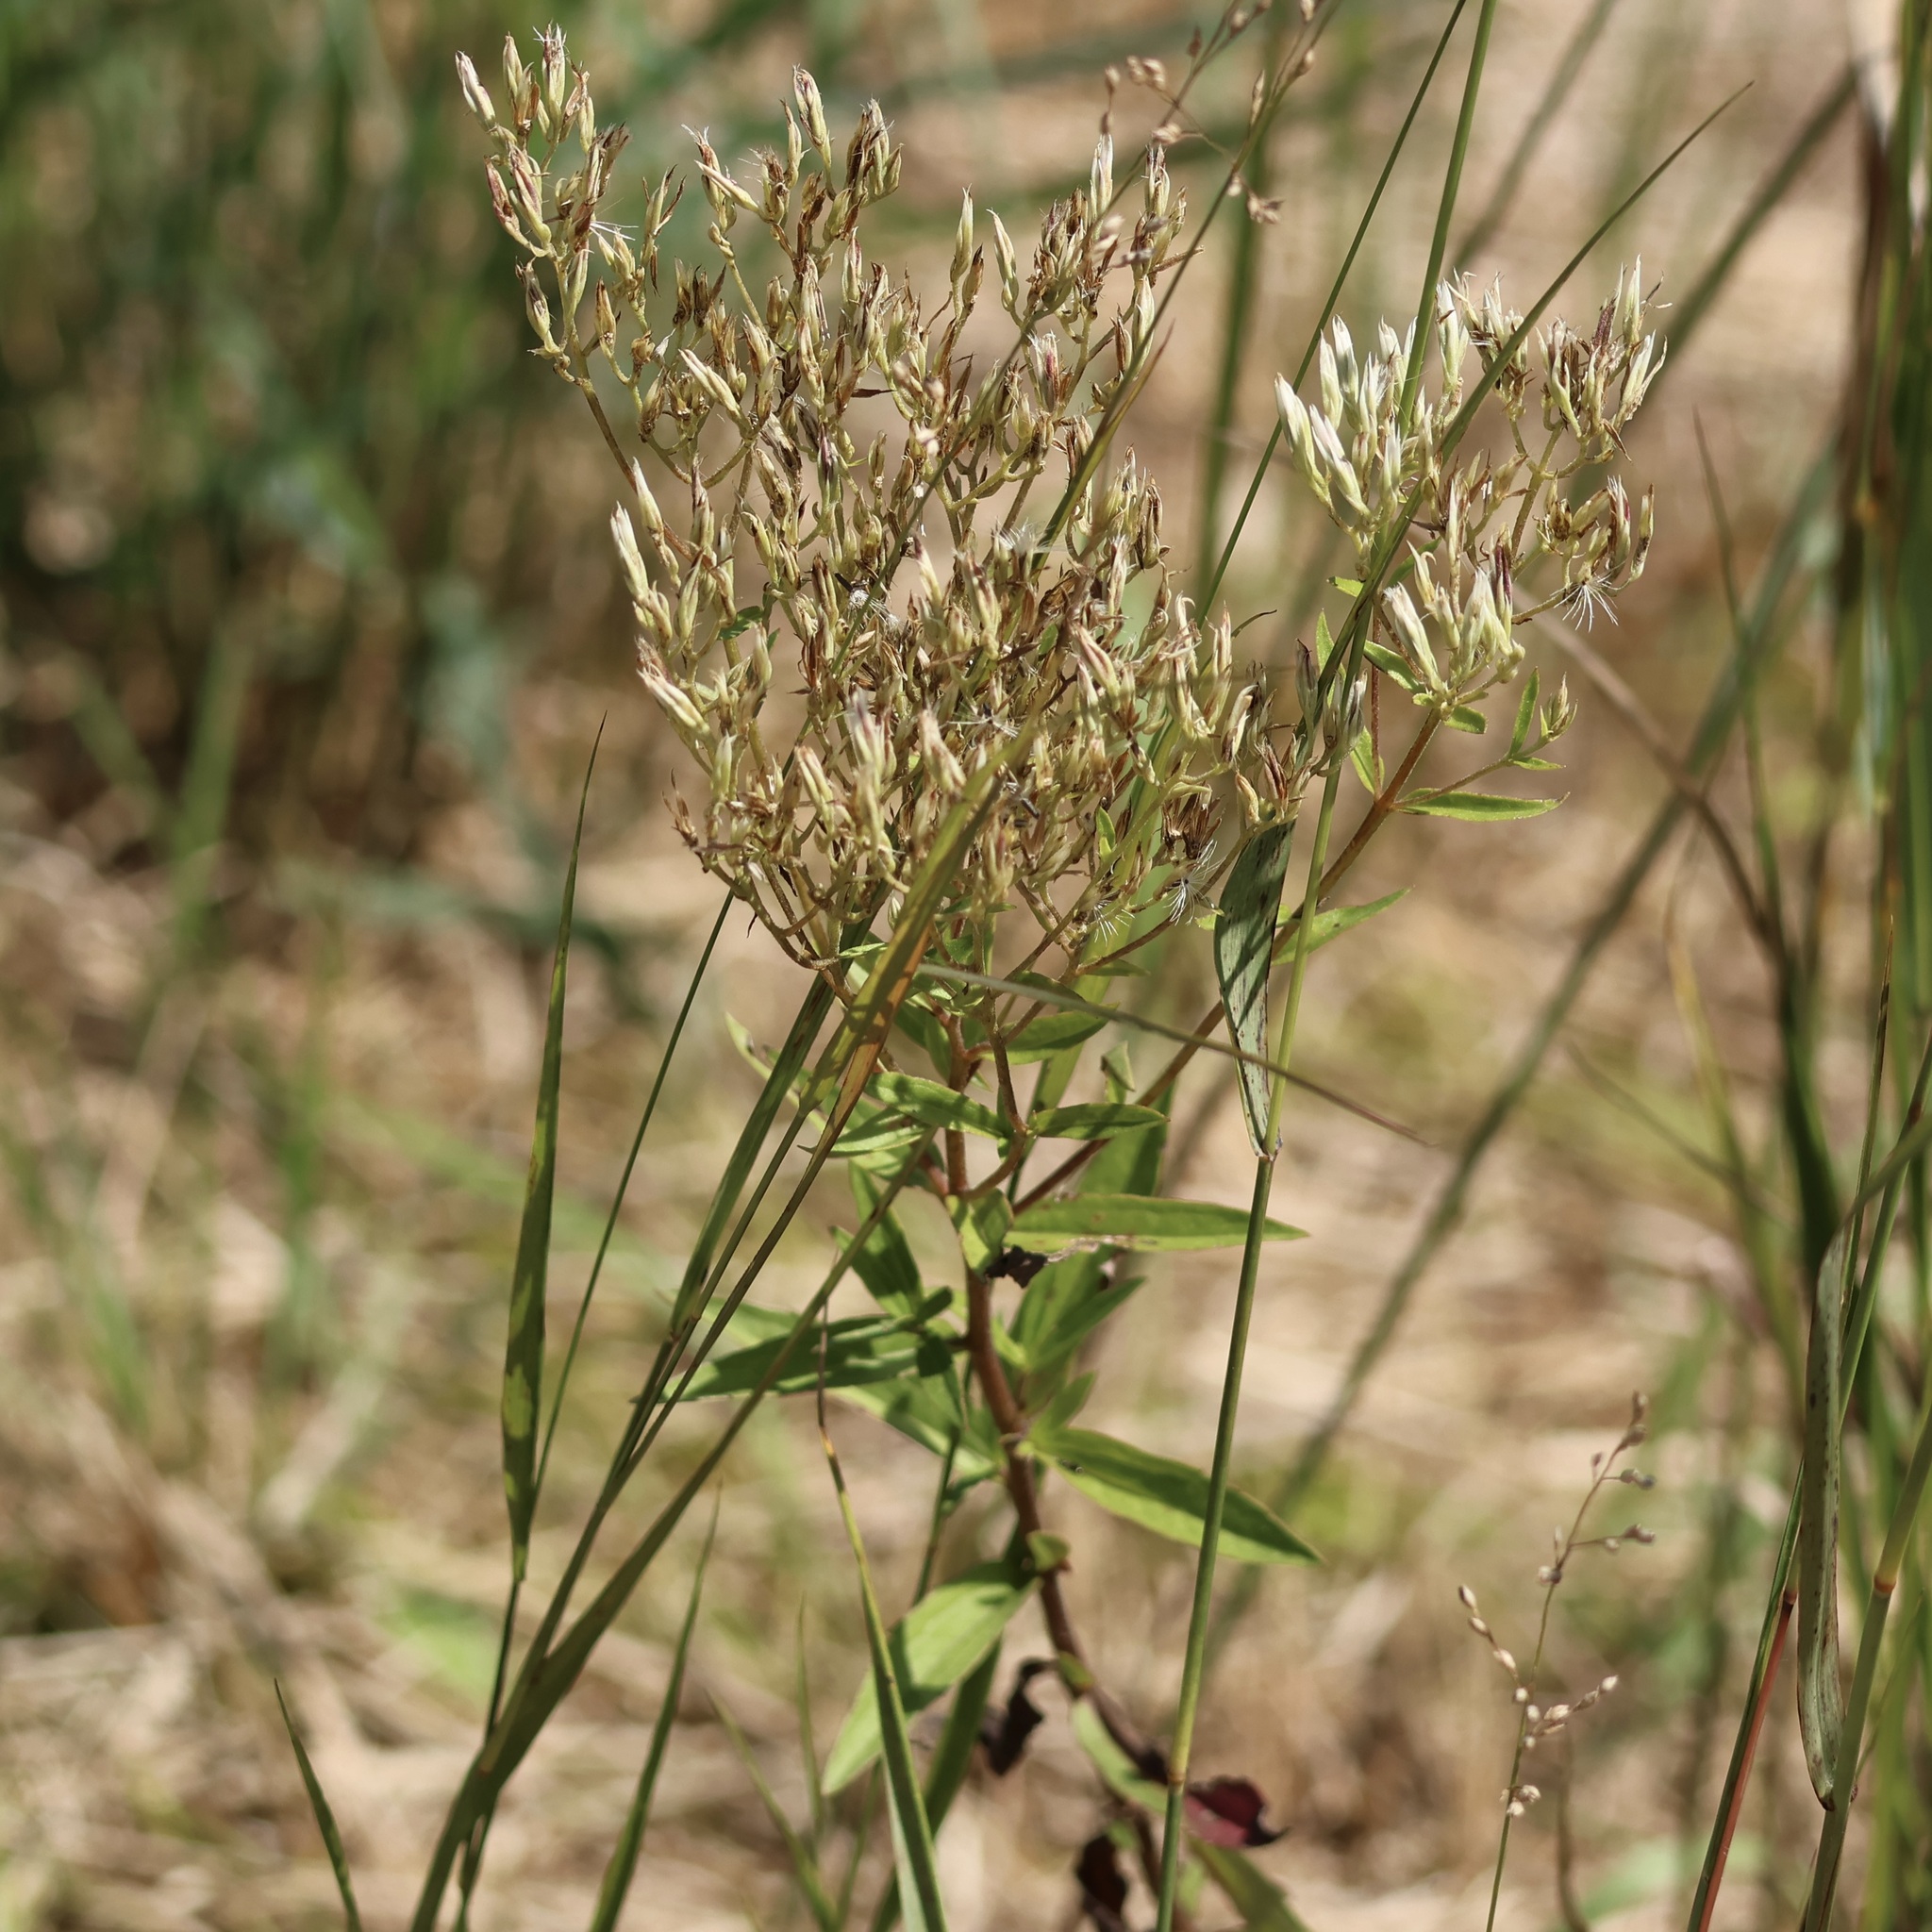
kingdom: Plantae
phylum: Tracheophyta
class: Magnoliopsida
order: Asterales
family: Asteraceae
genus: Eupatorium
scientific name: Eupatorium subvenosum
